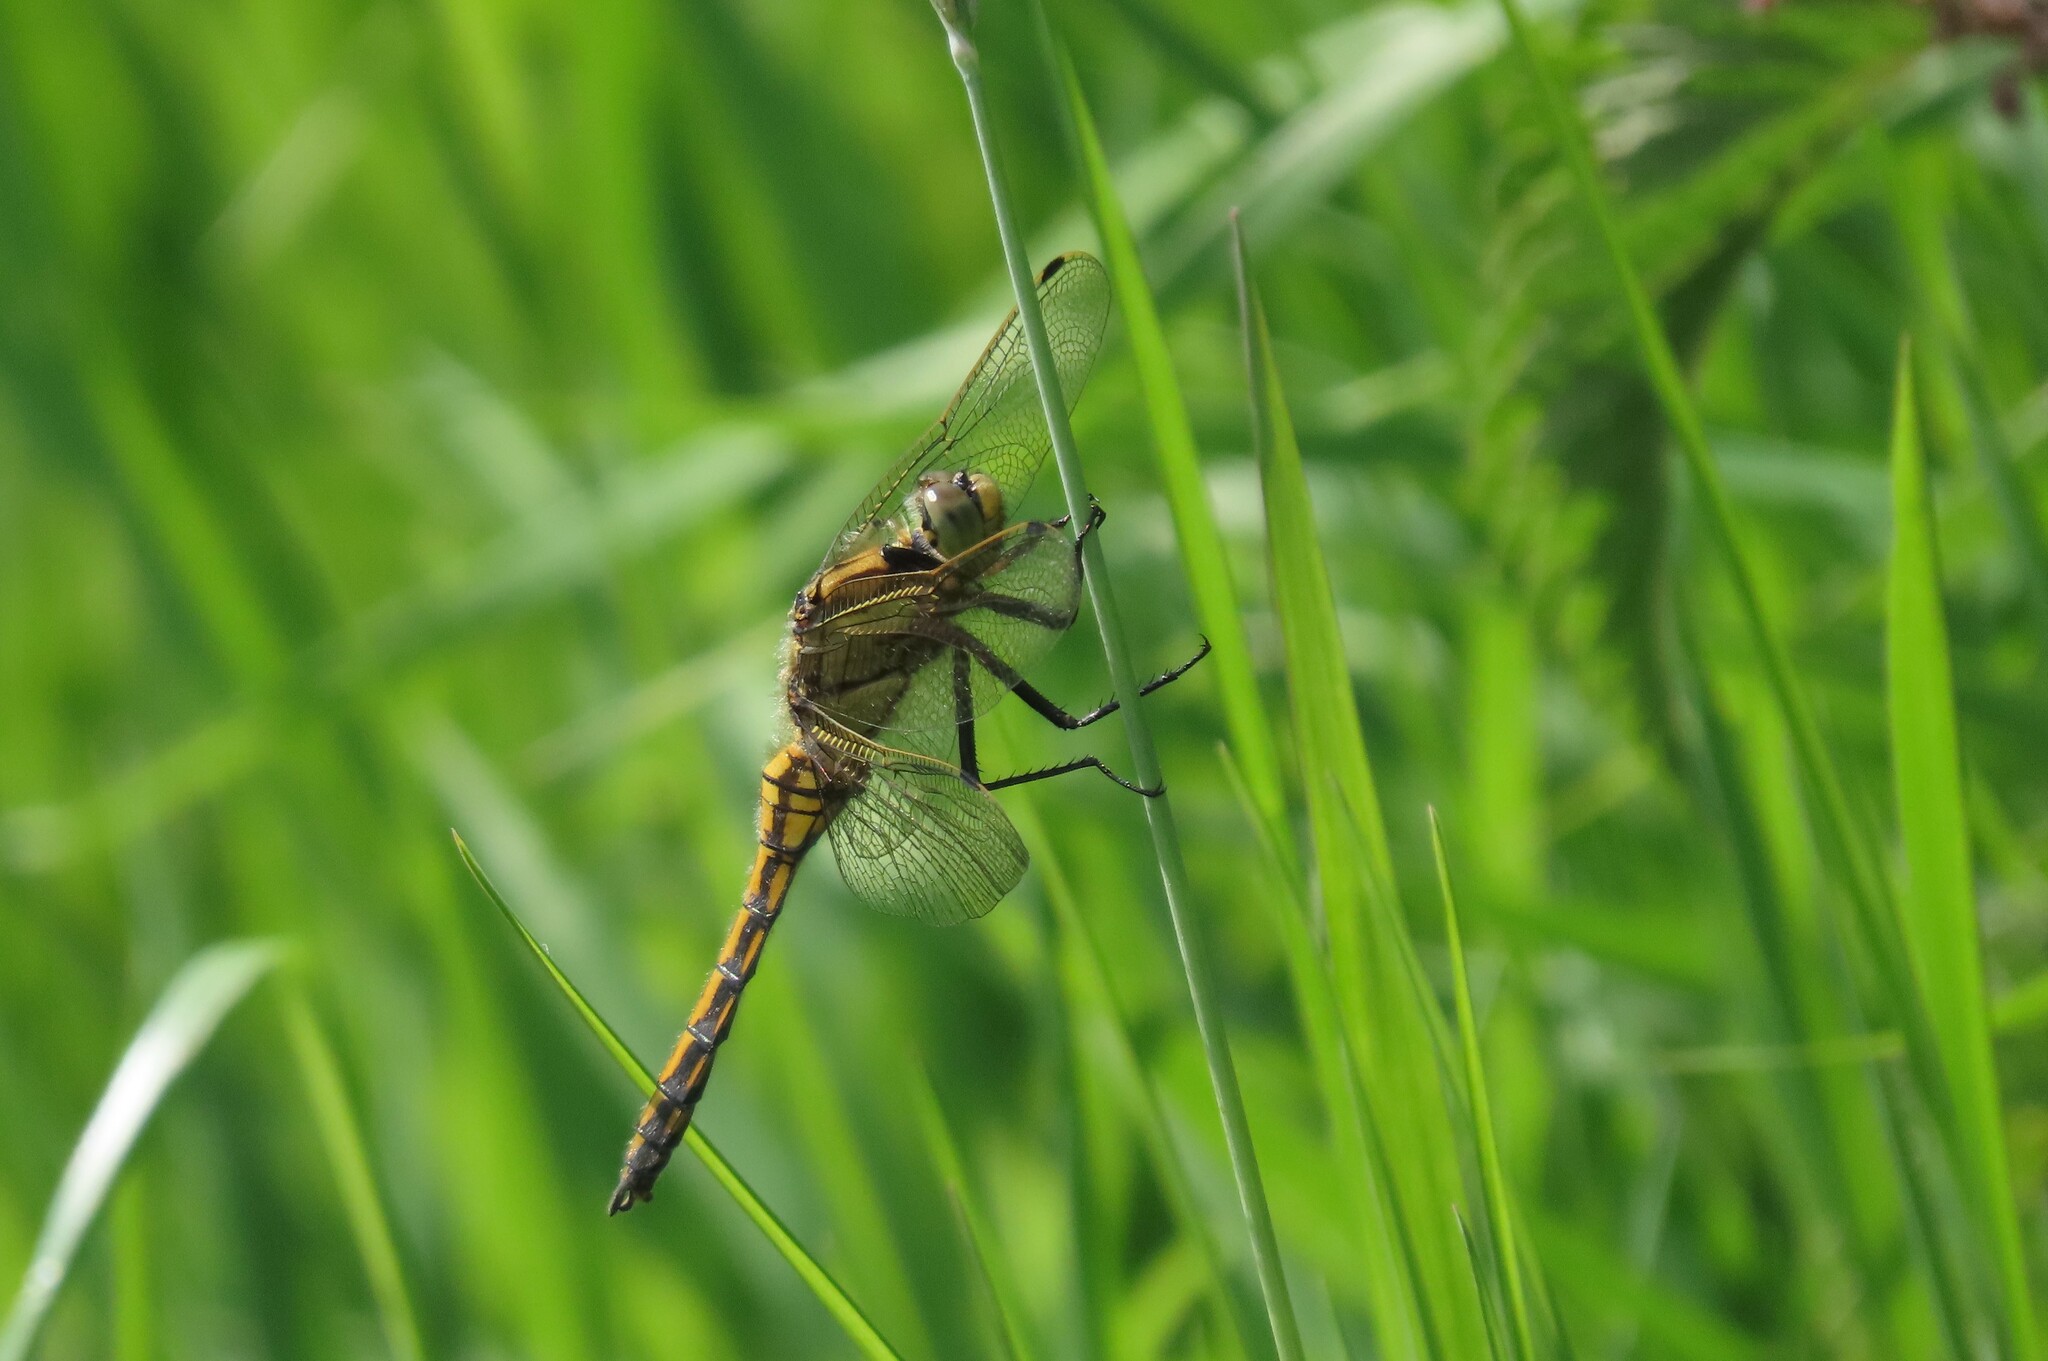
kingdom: Animalia
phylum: Arthropoda
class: Insecta
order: Odonata
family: Libellulidae
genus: Orthetrum
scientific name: Orthetrum cancellatum
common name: Black-tailed skimmer
